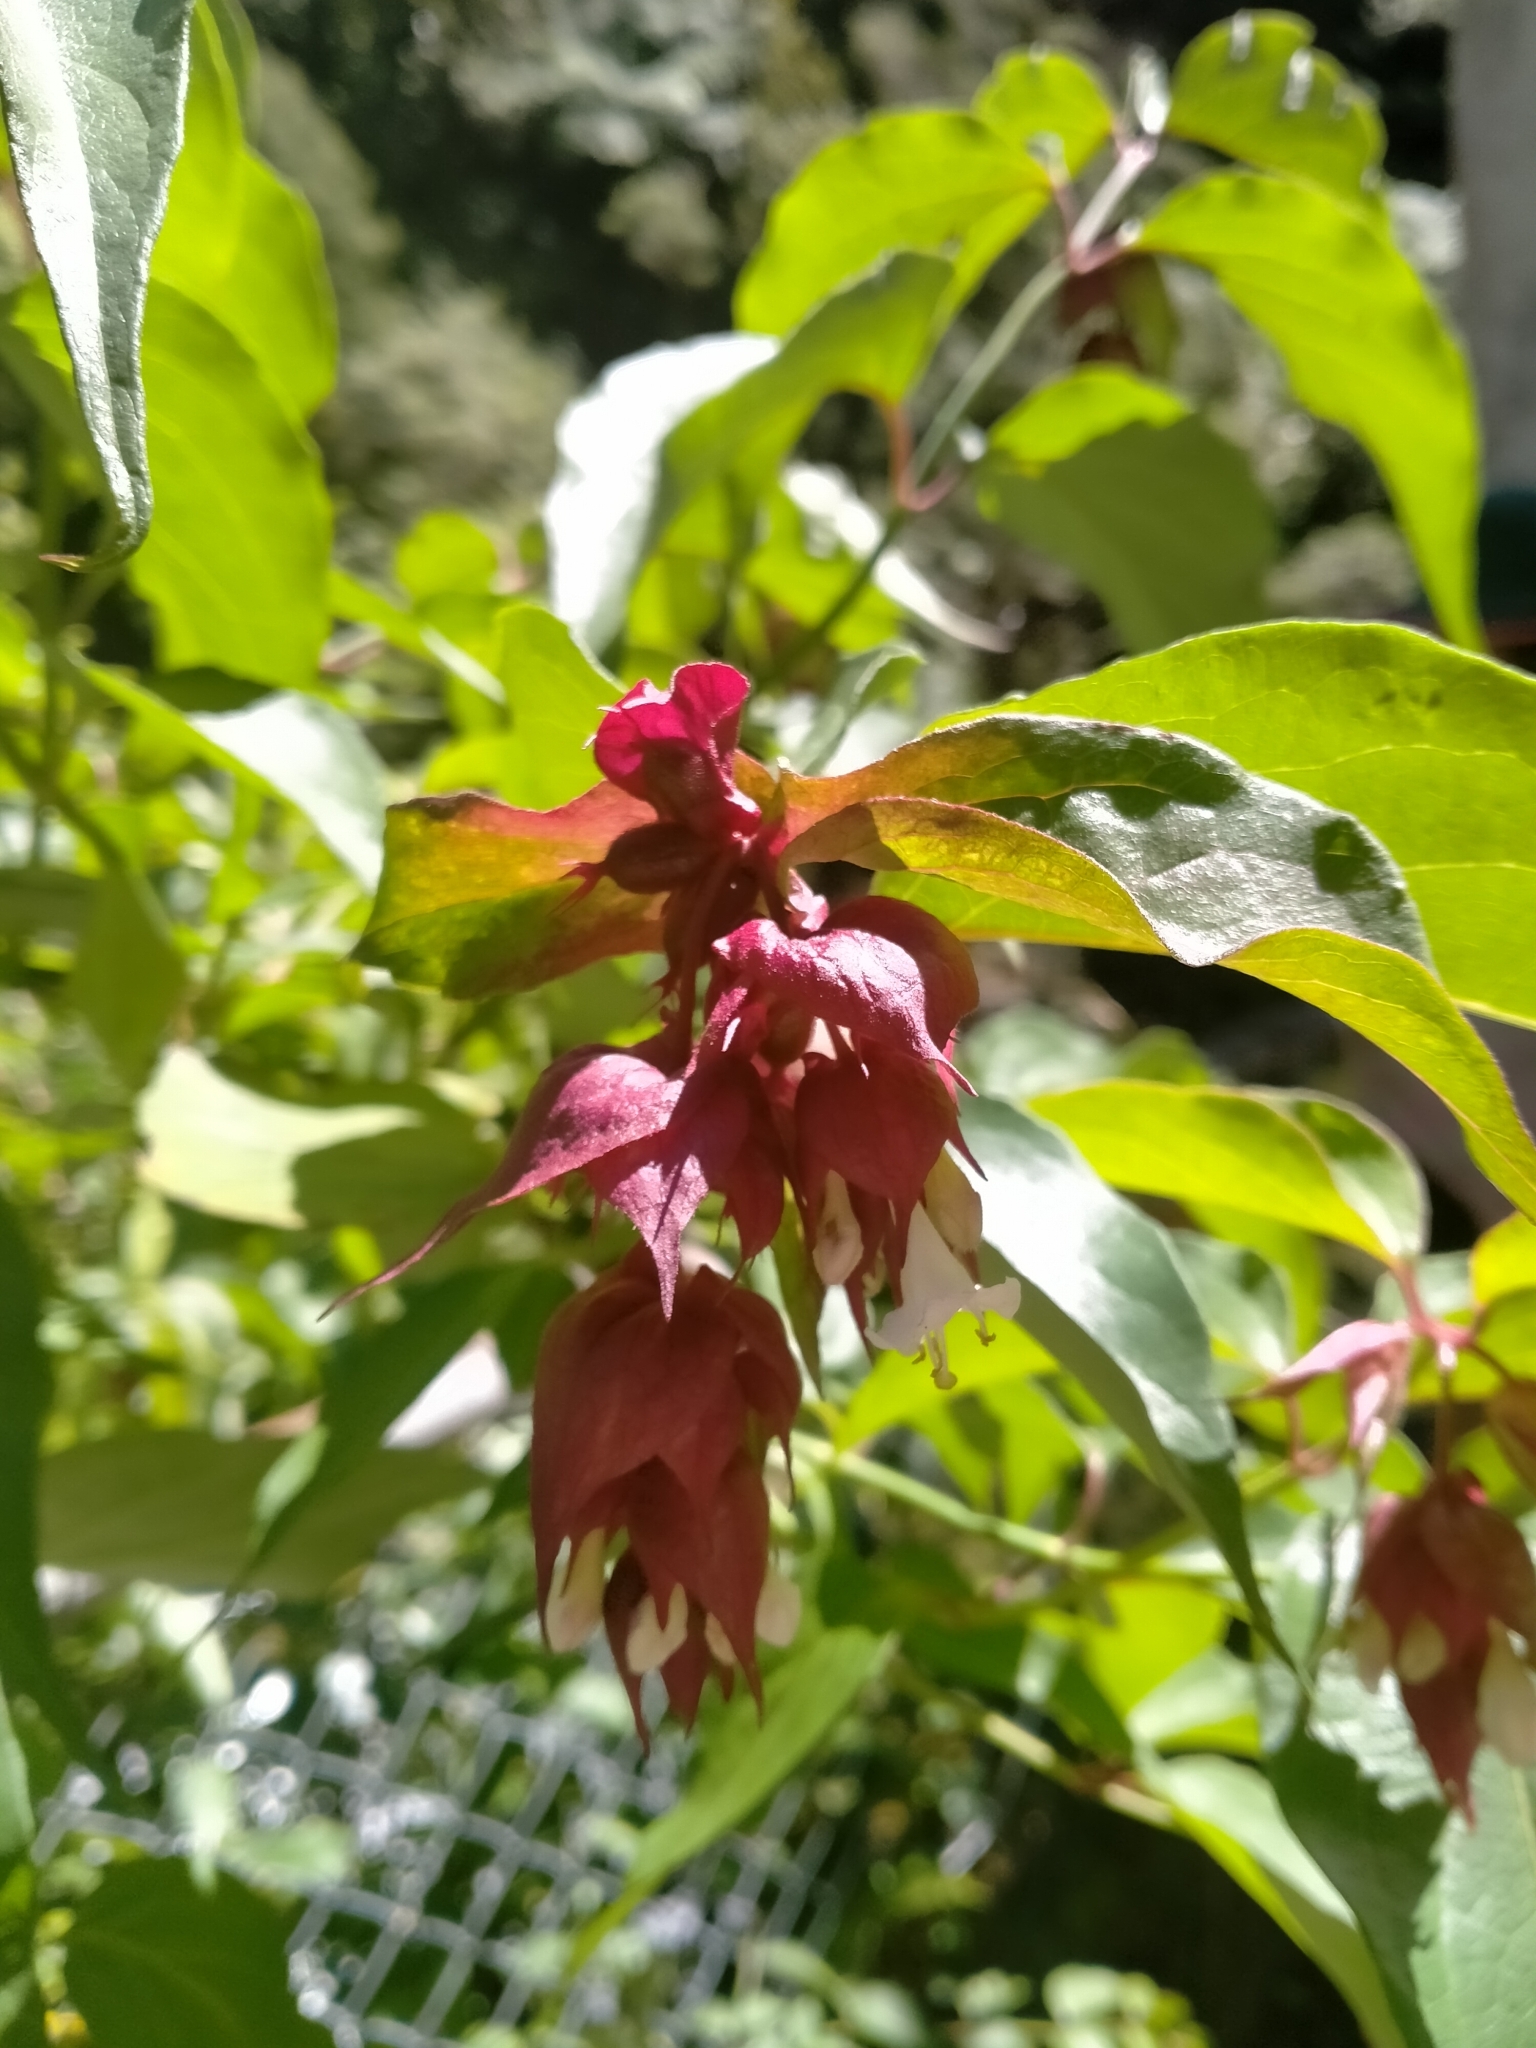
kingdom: Plantae
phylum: Tracheophyta
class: Magnoliopsida
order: Dipsacales
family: Caprifoliaceae
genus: Leycesteria
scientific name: Leycesteria formosa
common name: Himalayan honeysuckle
